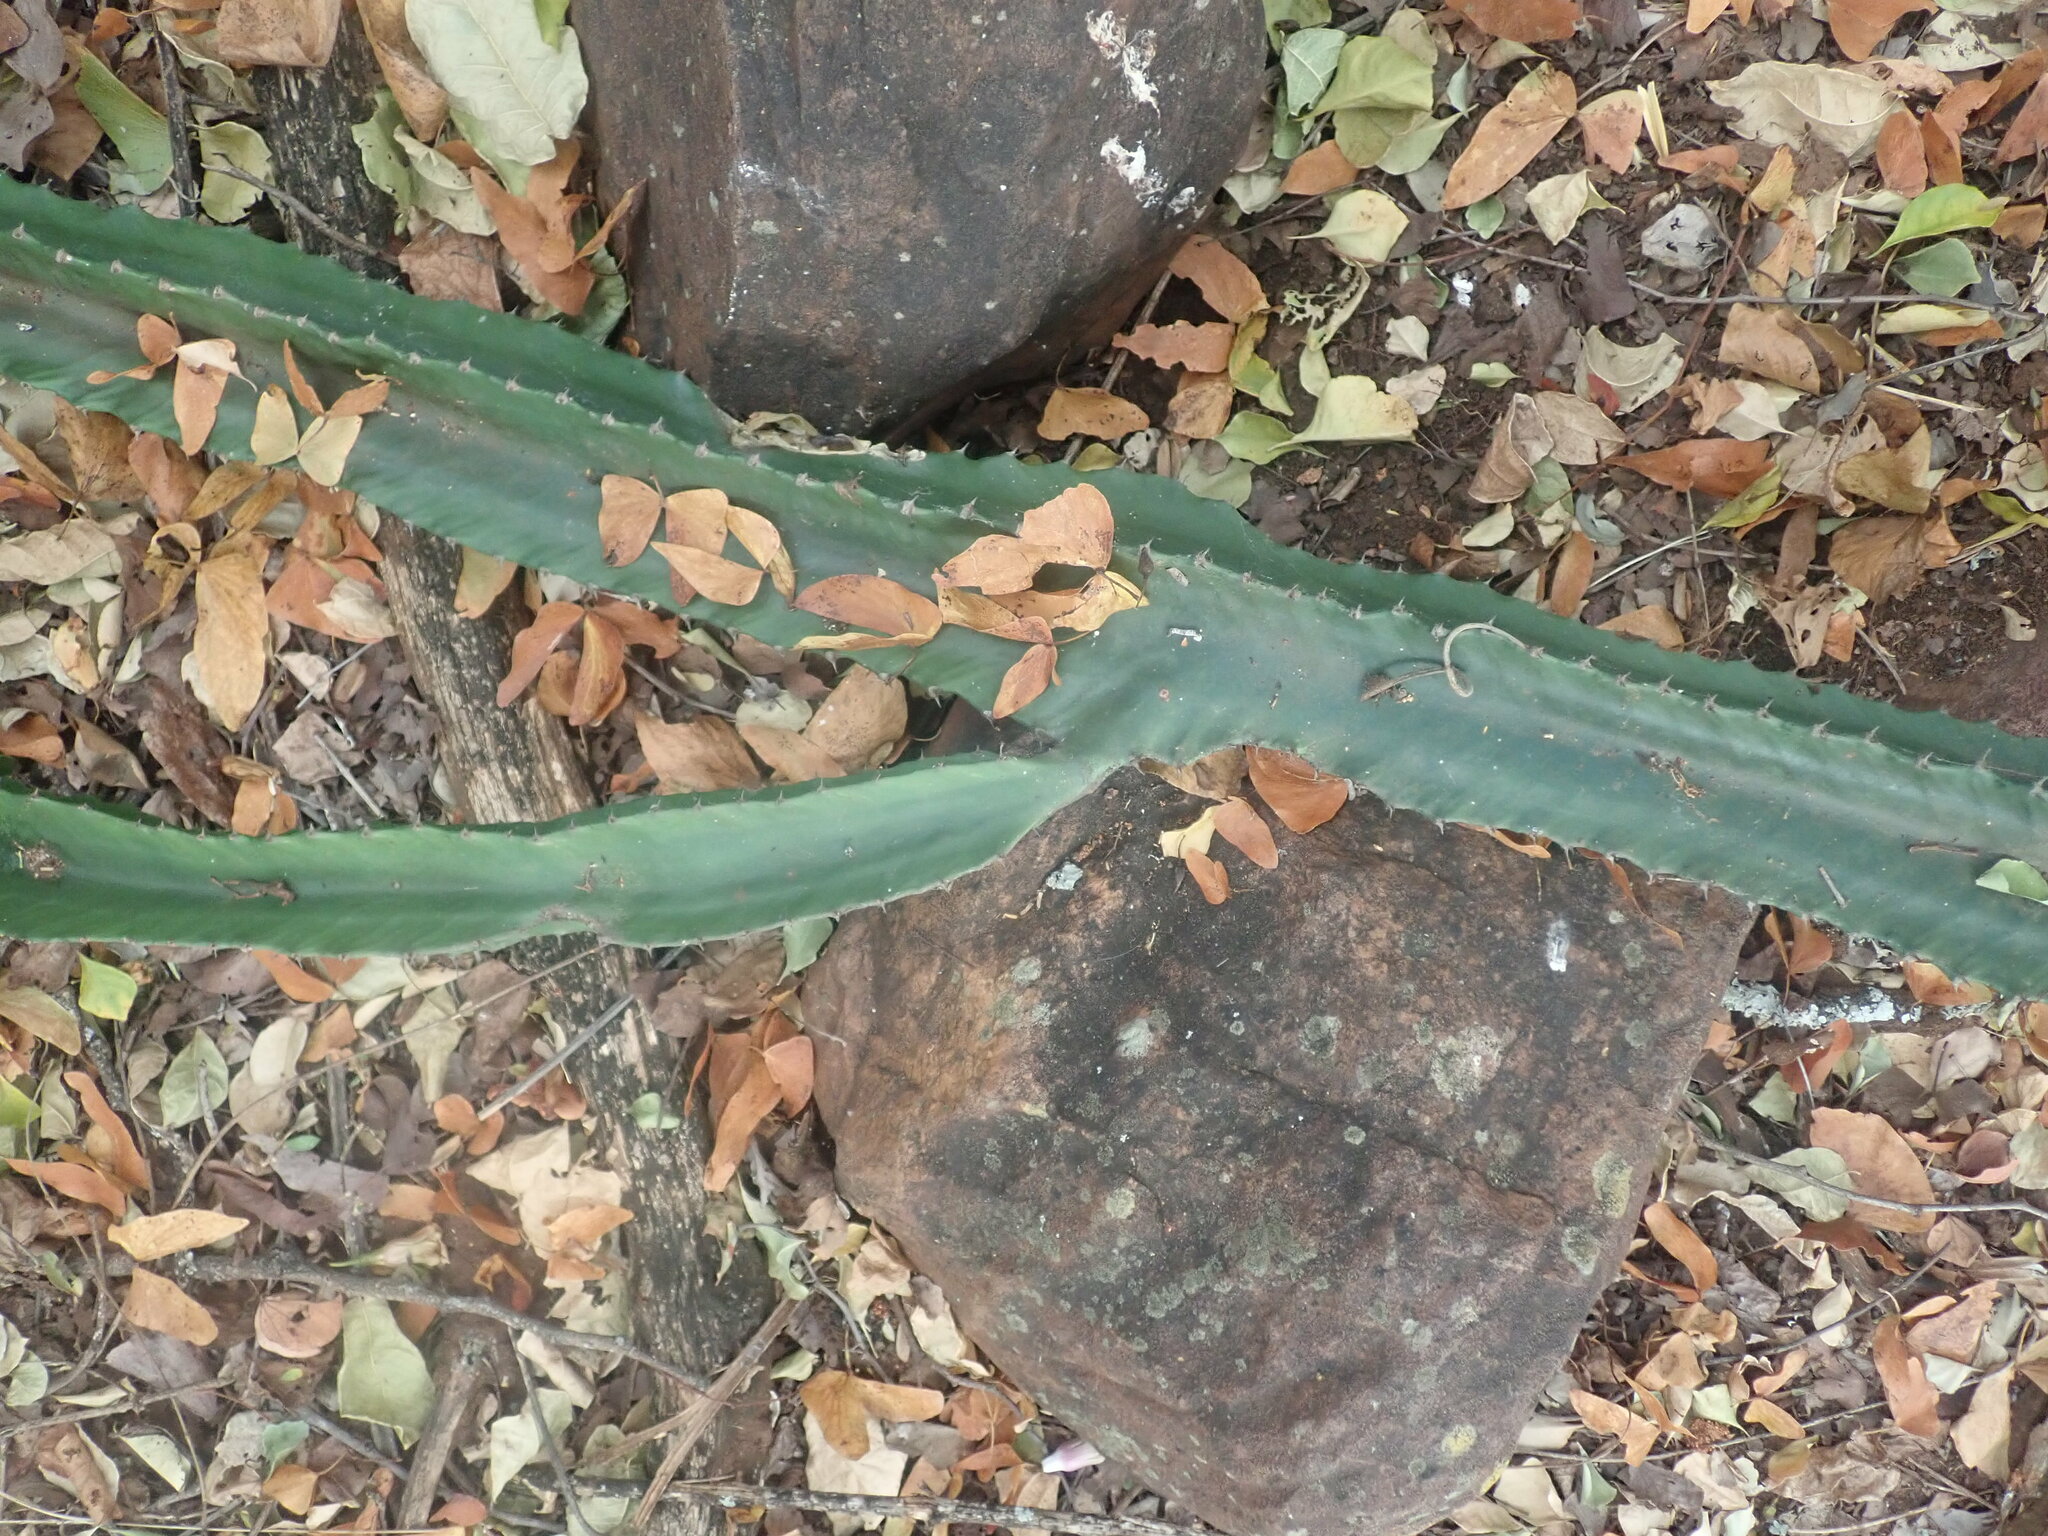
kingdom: Plantae
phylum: Tracheophyta
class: Magnoliopsida
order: Malpighiales
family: Euphorbiaceae
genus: Euphorbia
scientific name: Euphorbia ingens
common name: Cactus spurge
